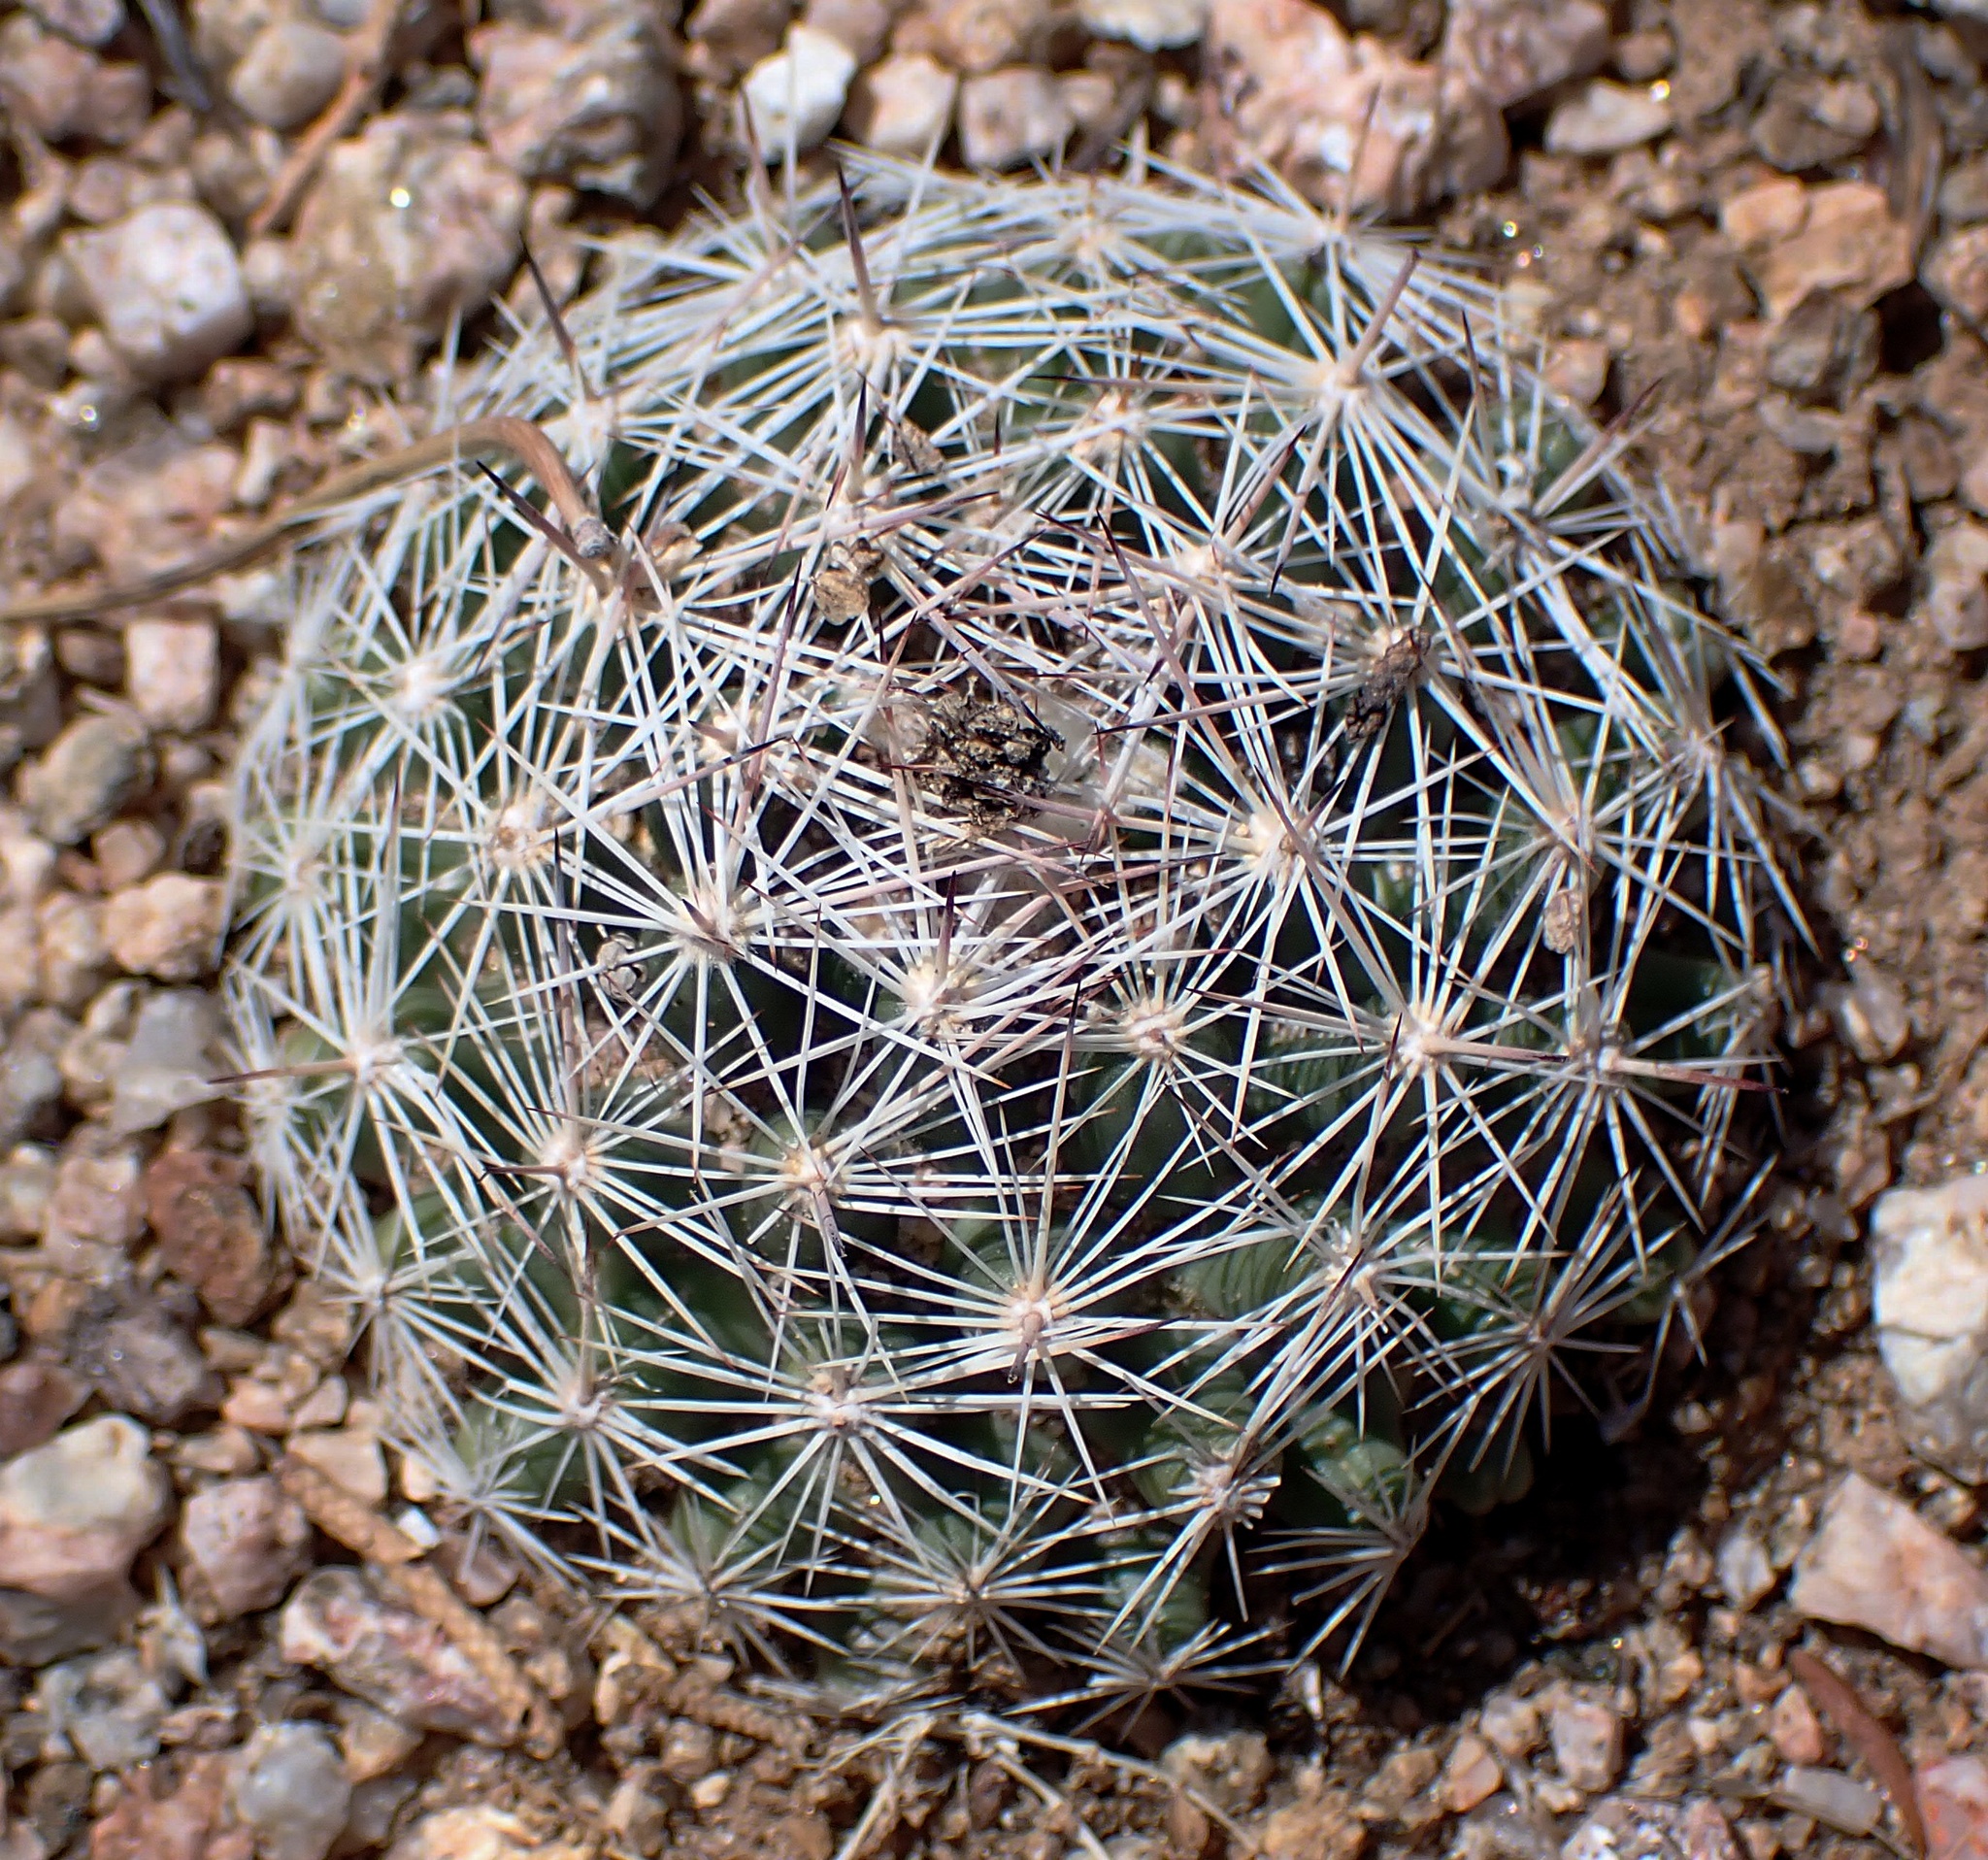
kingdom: Plantae
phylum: Tracheophyta
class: Magnoliopsida
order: Caryophyllales
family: Cactaceae
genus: Pelecyphora
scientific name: Pelecyphora vivipara
